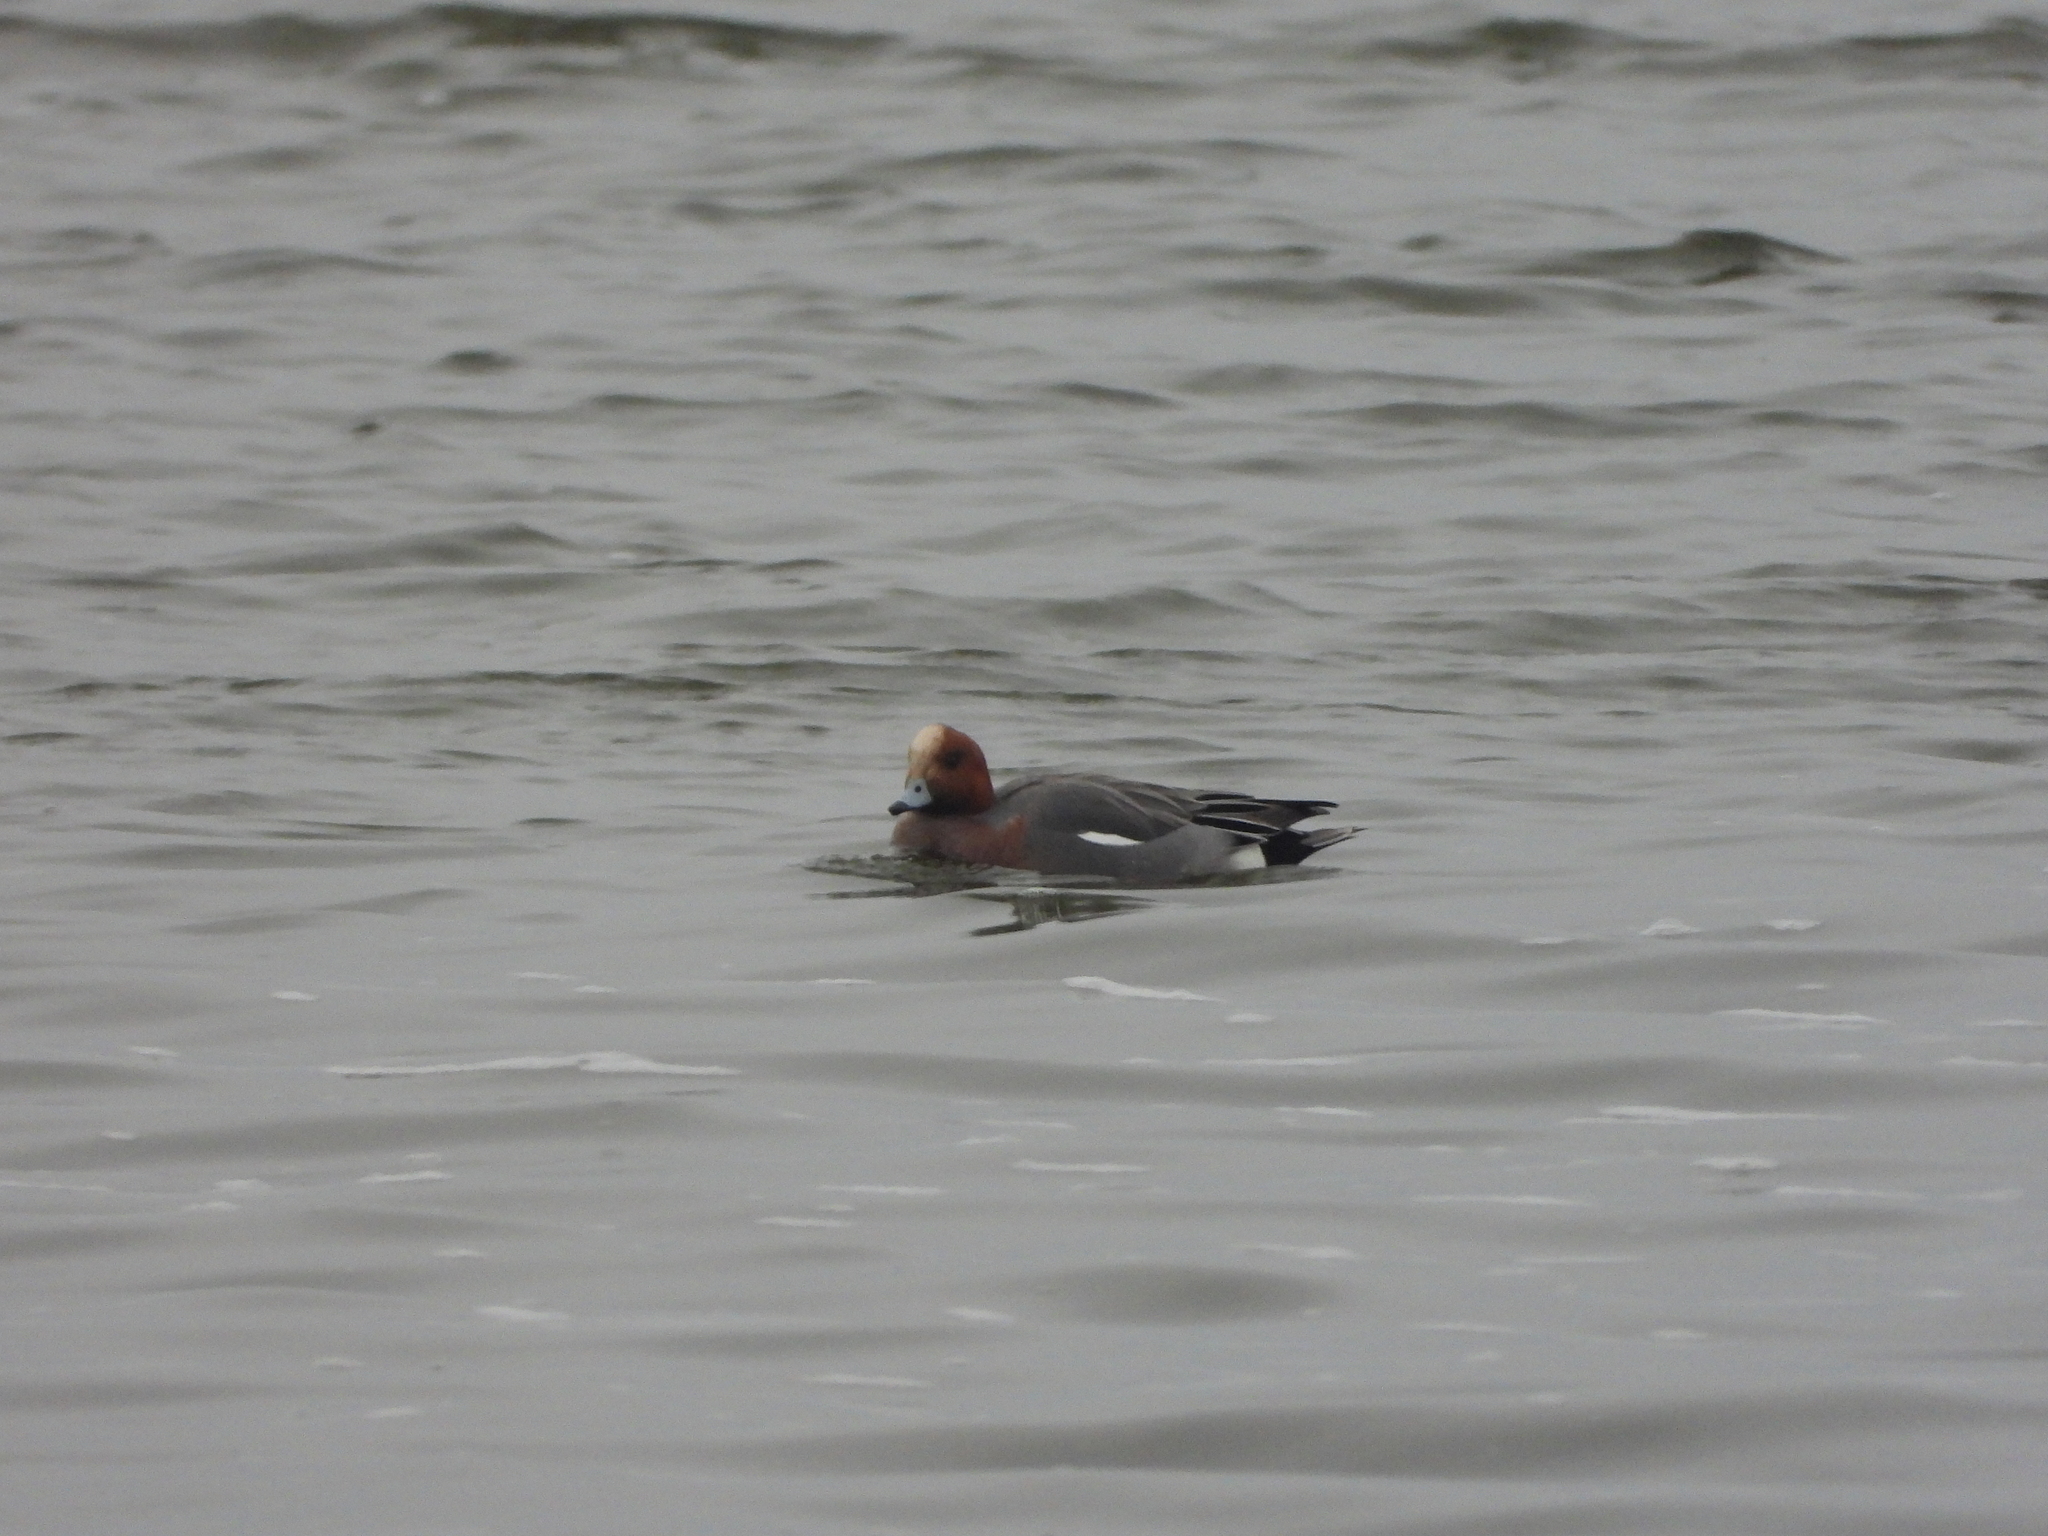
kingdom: Animalia
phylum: Chordata
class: Aves
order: Anseriformes
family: Anatidae
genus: Mareca
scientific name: Mareca penelope
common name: Eurasian wigeon
